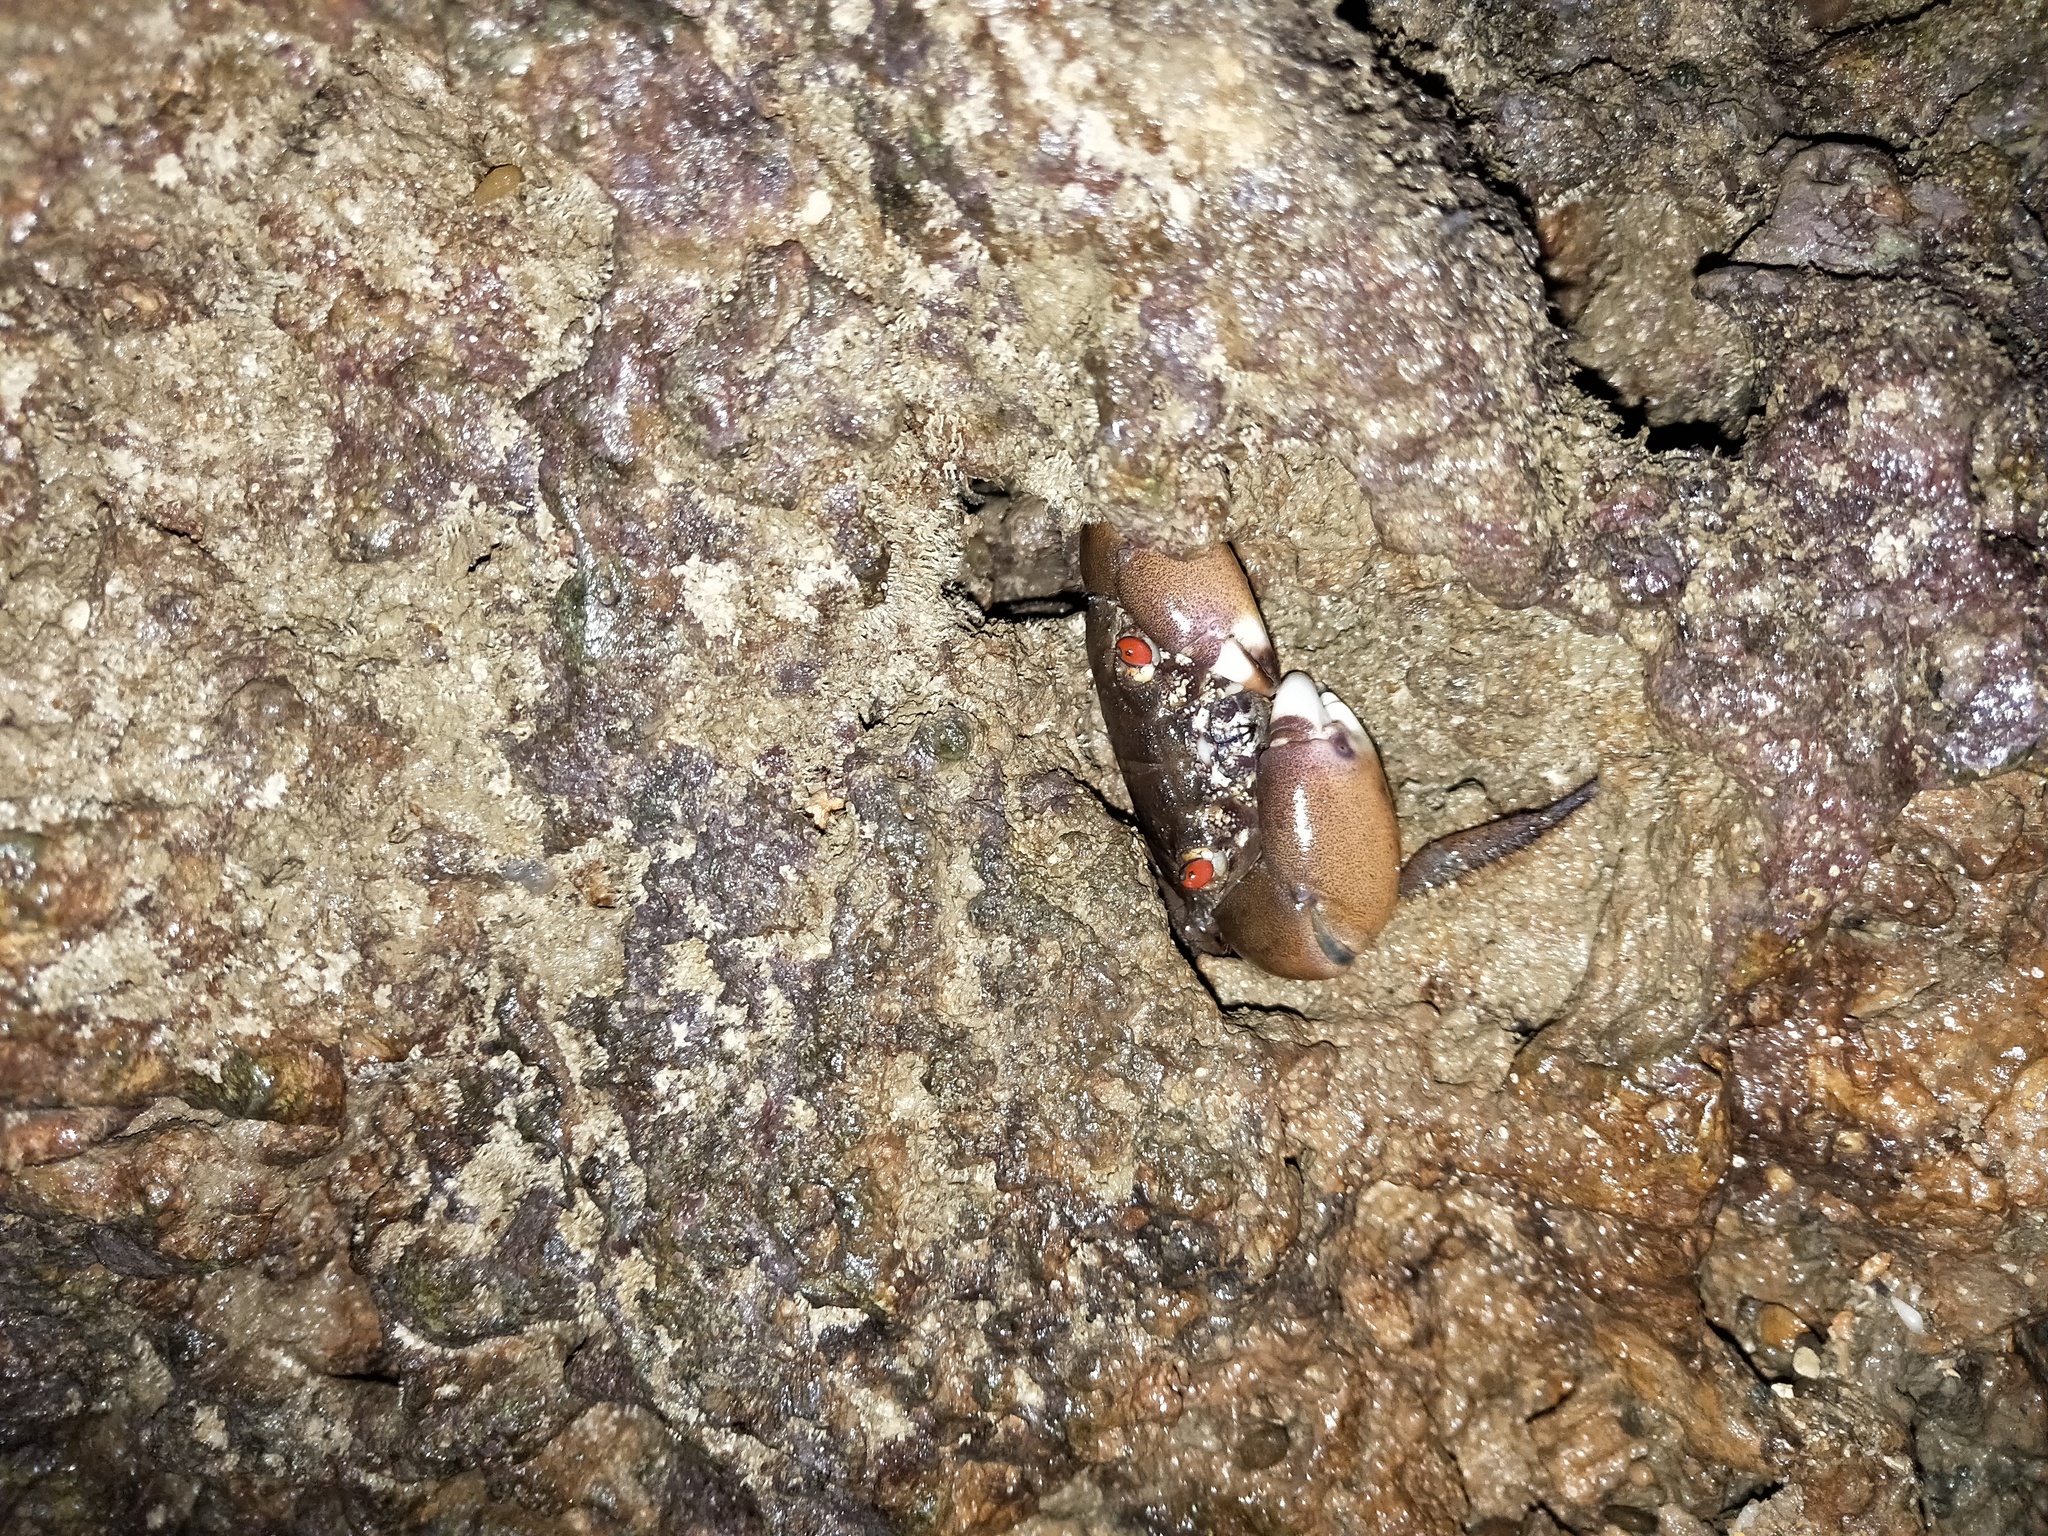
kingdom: Animalia
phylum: Arthropoda
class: Malacostraca
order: Decapoda
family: Eriphiidae
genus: Eriphia
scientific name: Eriphia sebana
